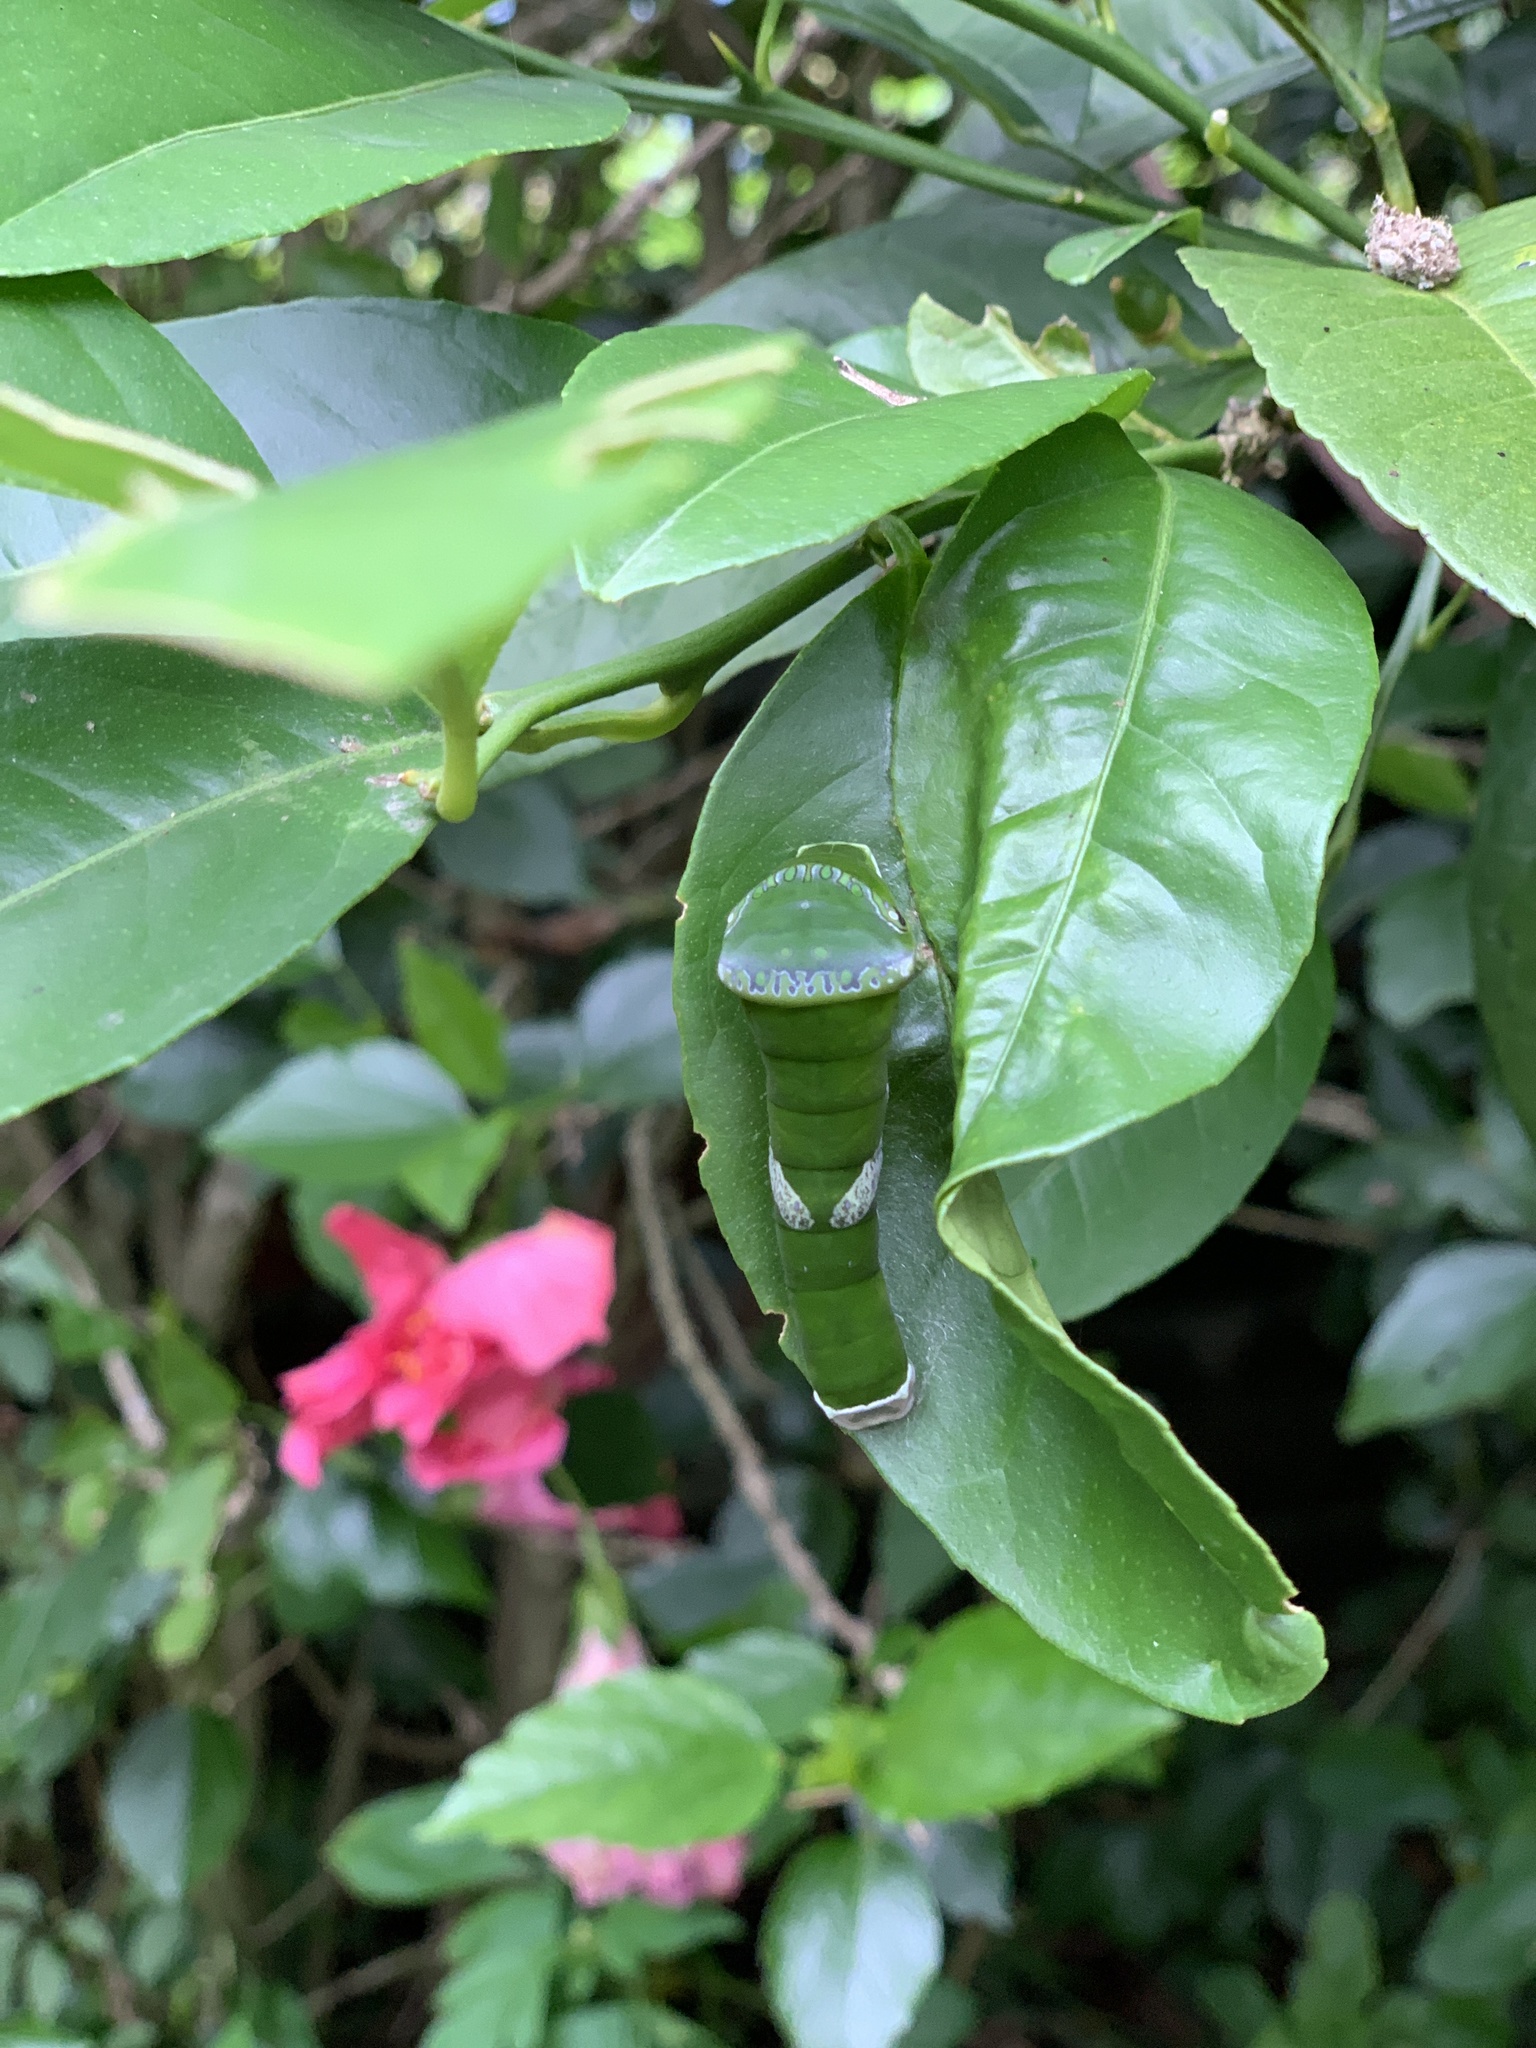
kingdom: Animalia
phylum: Arthropoda
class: Insecta
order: Lepidoptera
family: Papilionidae
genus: Papilio
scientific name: Papilio memnon
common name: Great mormon
